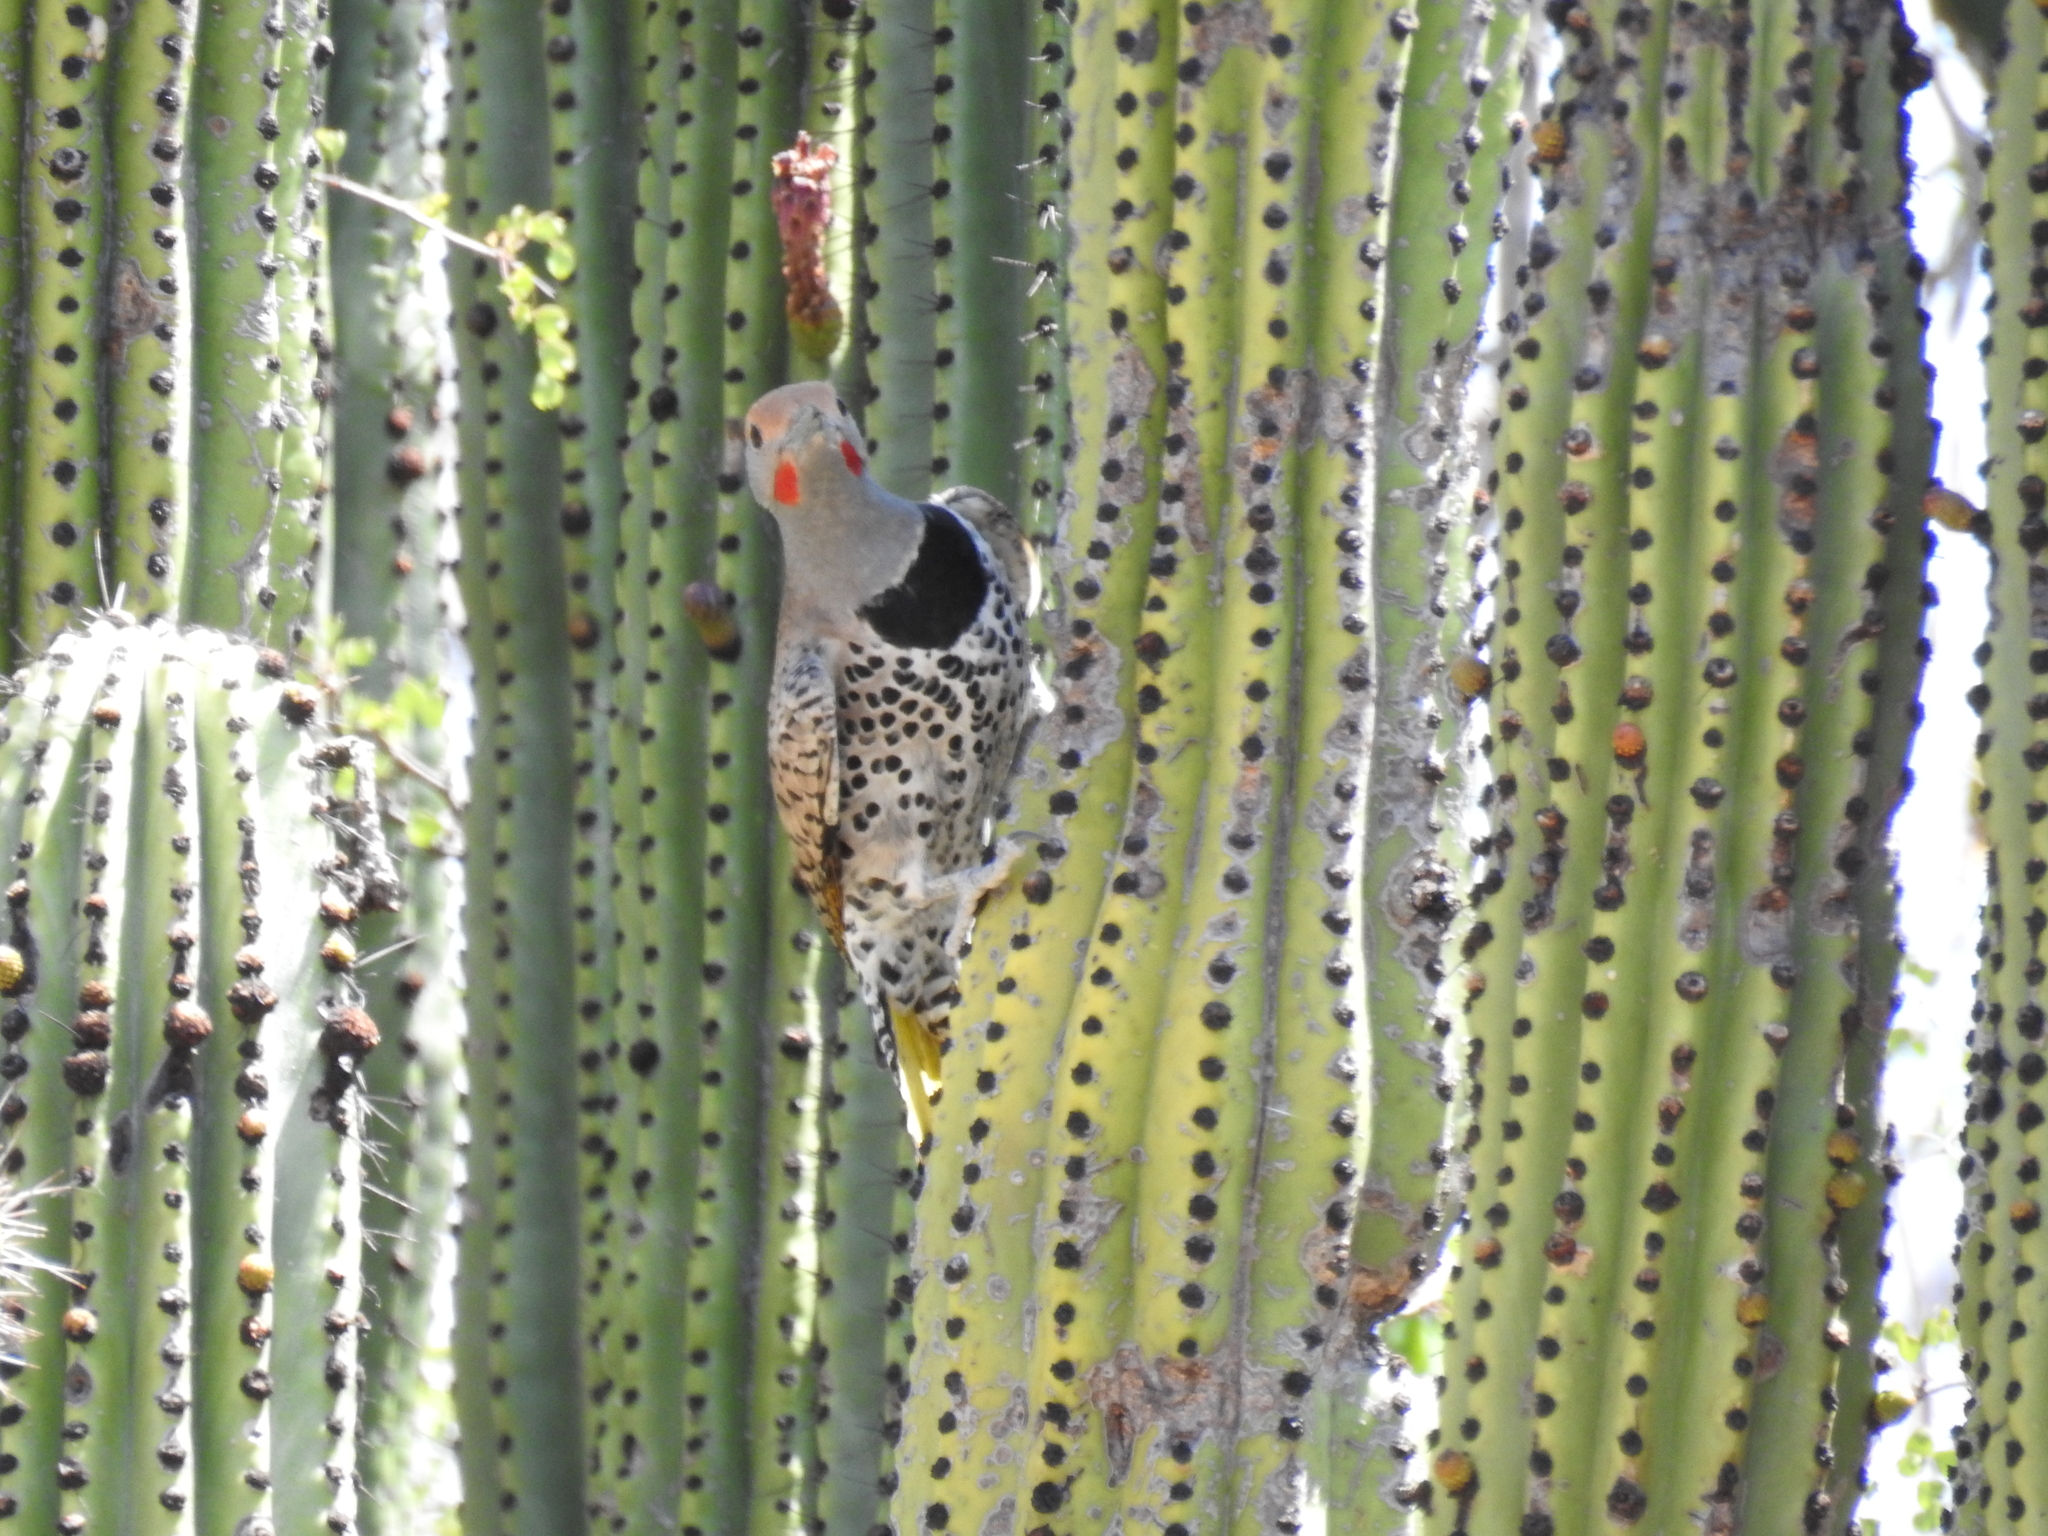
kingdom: Plantae
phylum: Tracheophyta
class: Magnoliopsida
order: Caryophyllales
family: Cactaceae
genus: Stenocereus
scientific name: Stenocereus thurberi
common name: Organ pipe cactus
